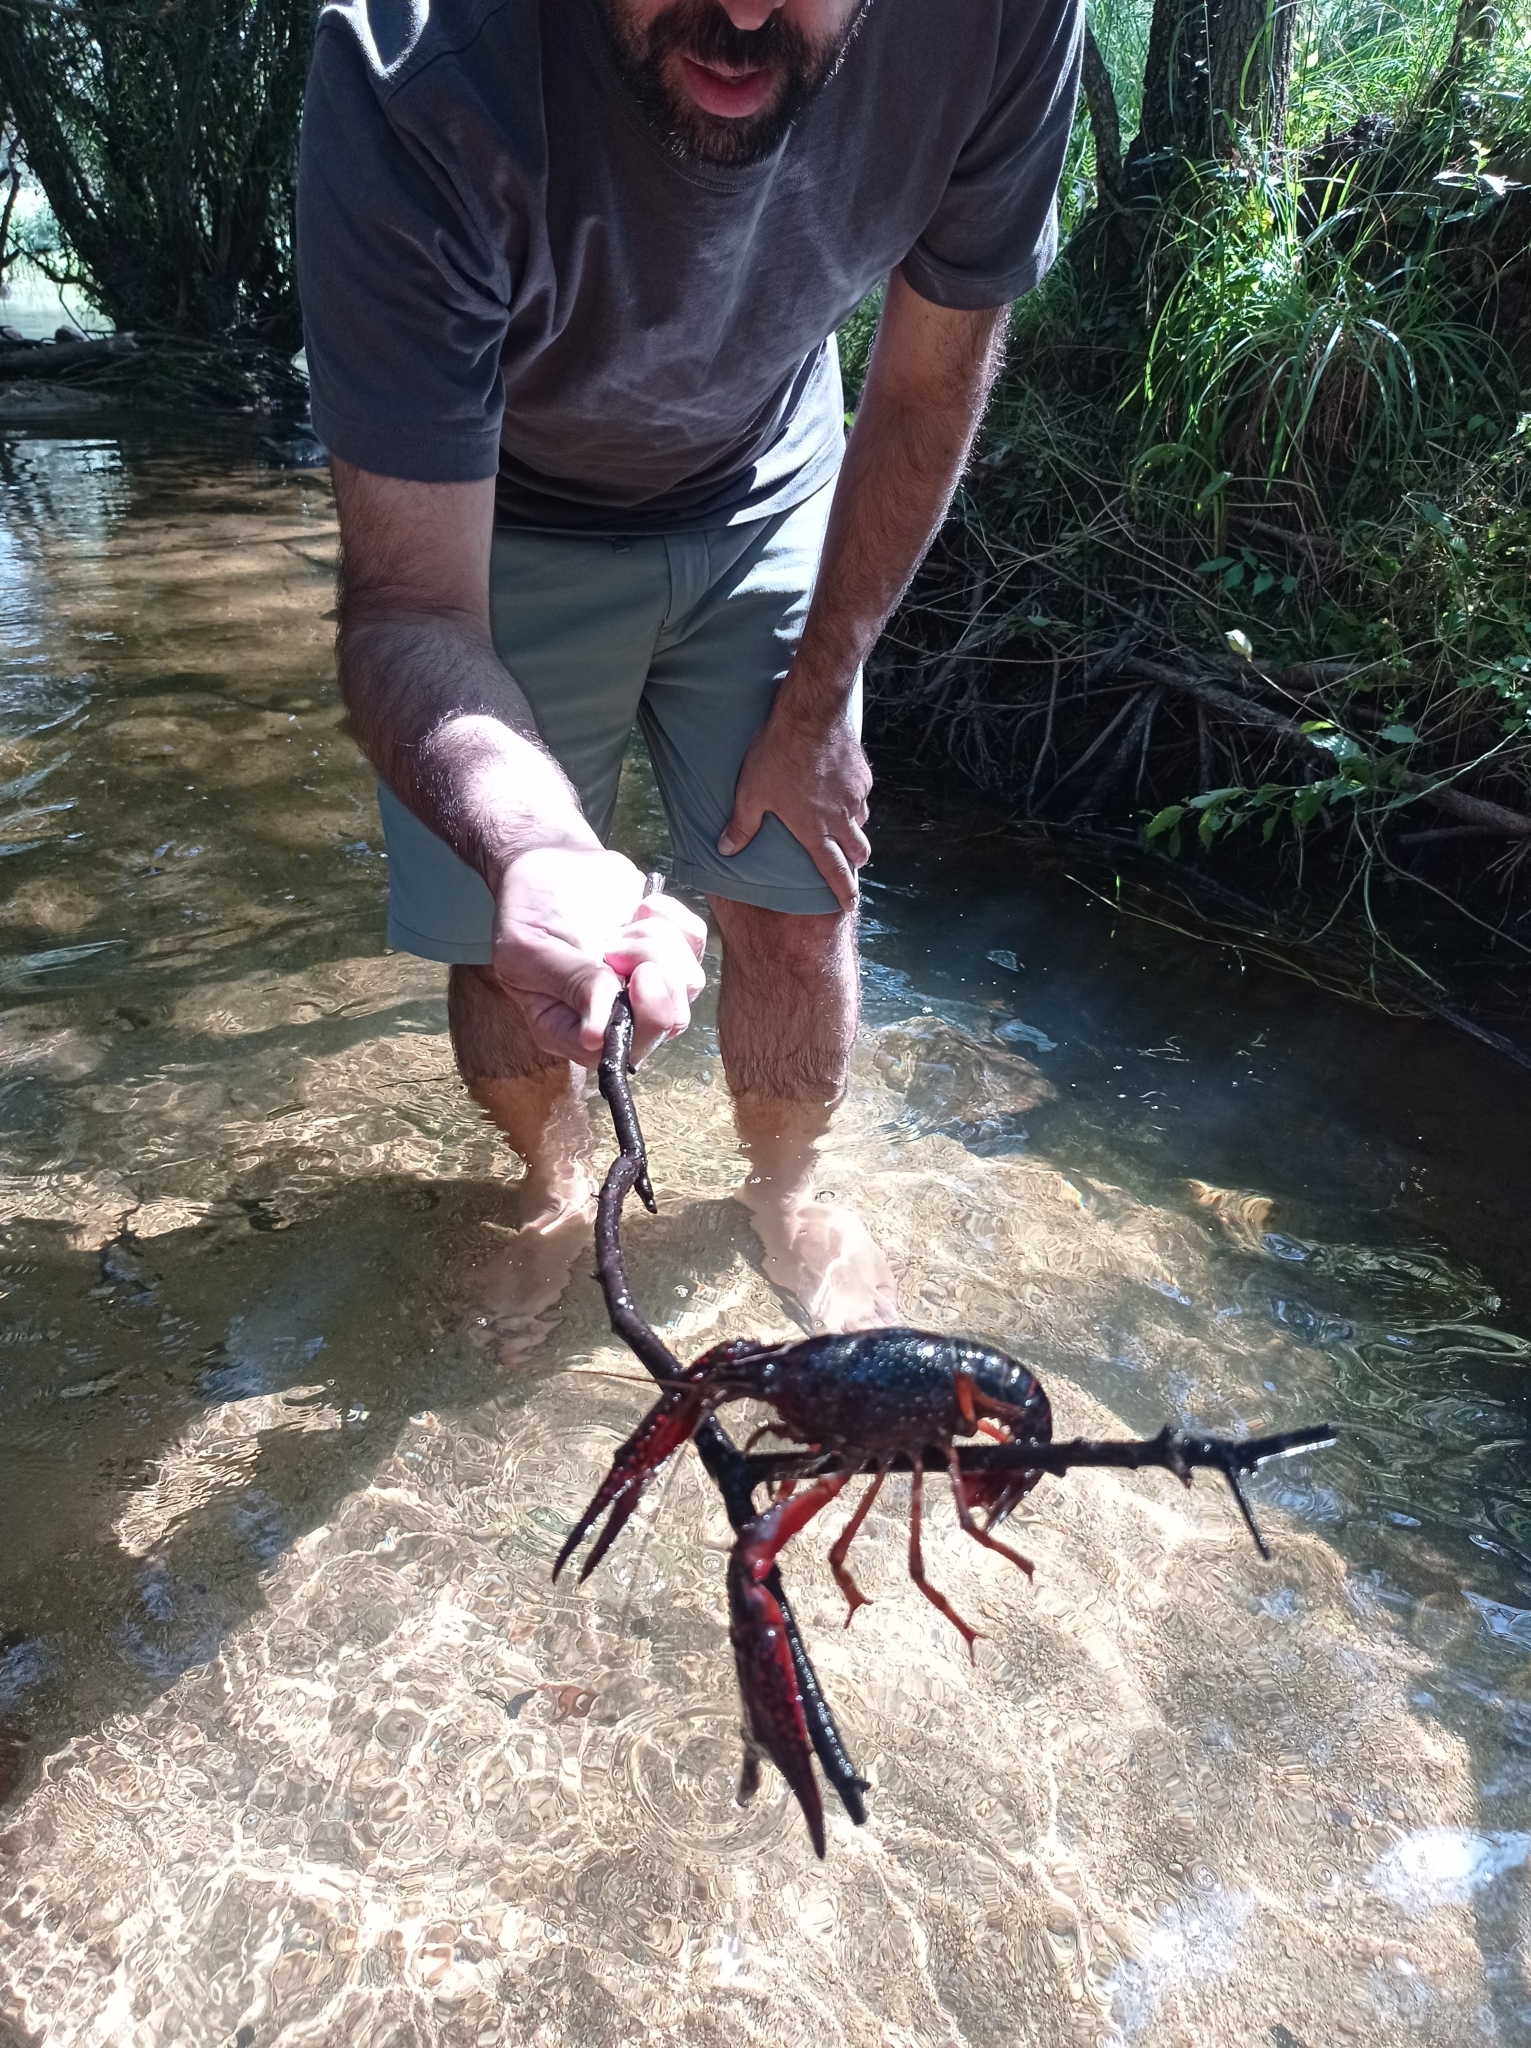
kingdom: Animalia
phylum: Arthropoda
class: Malacostraca
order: Decapoda
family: Cambaridae
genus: Procambarus
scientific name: Procambarus clarkii
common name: Red swamp crayfish
